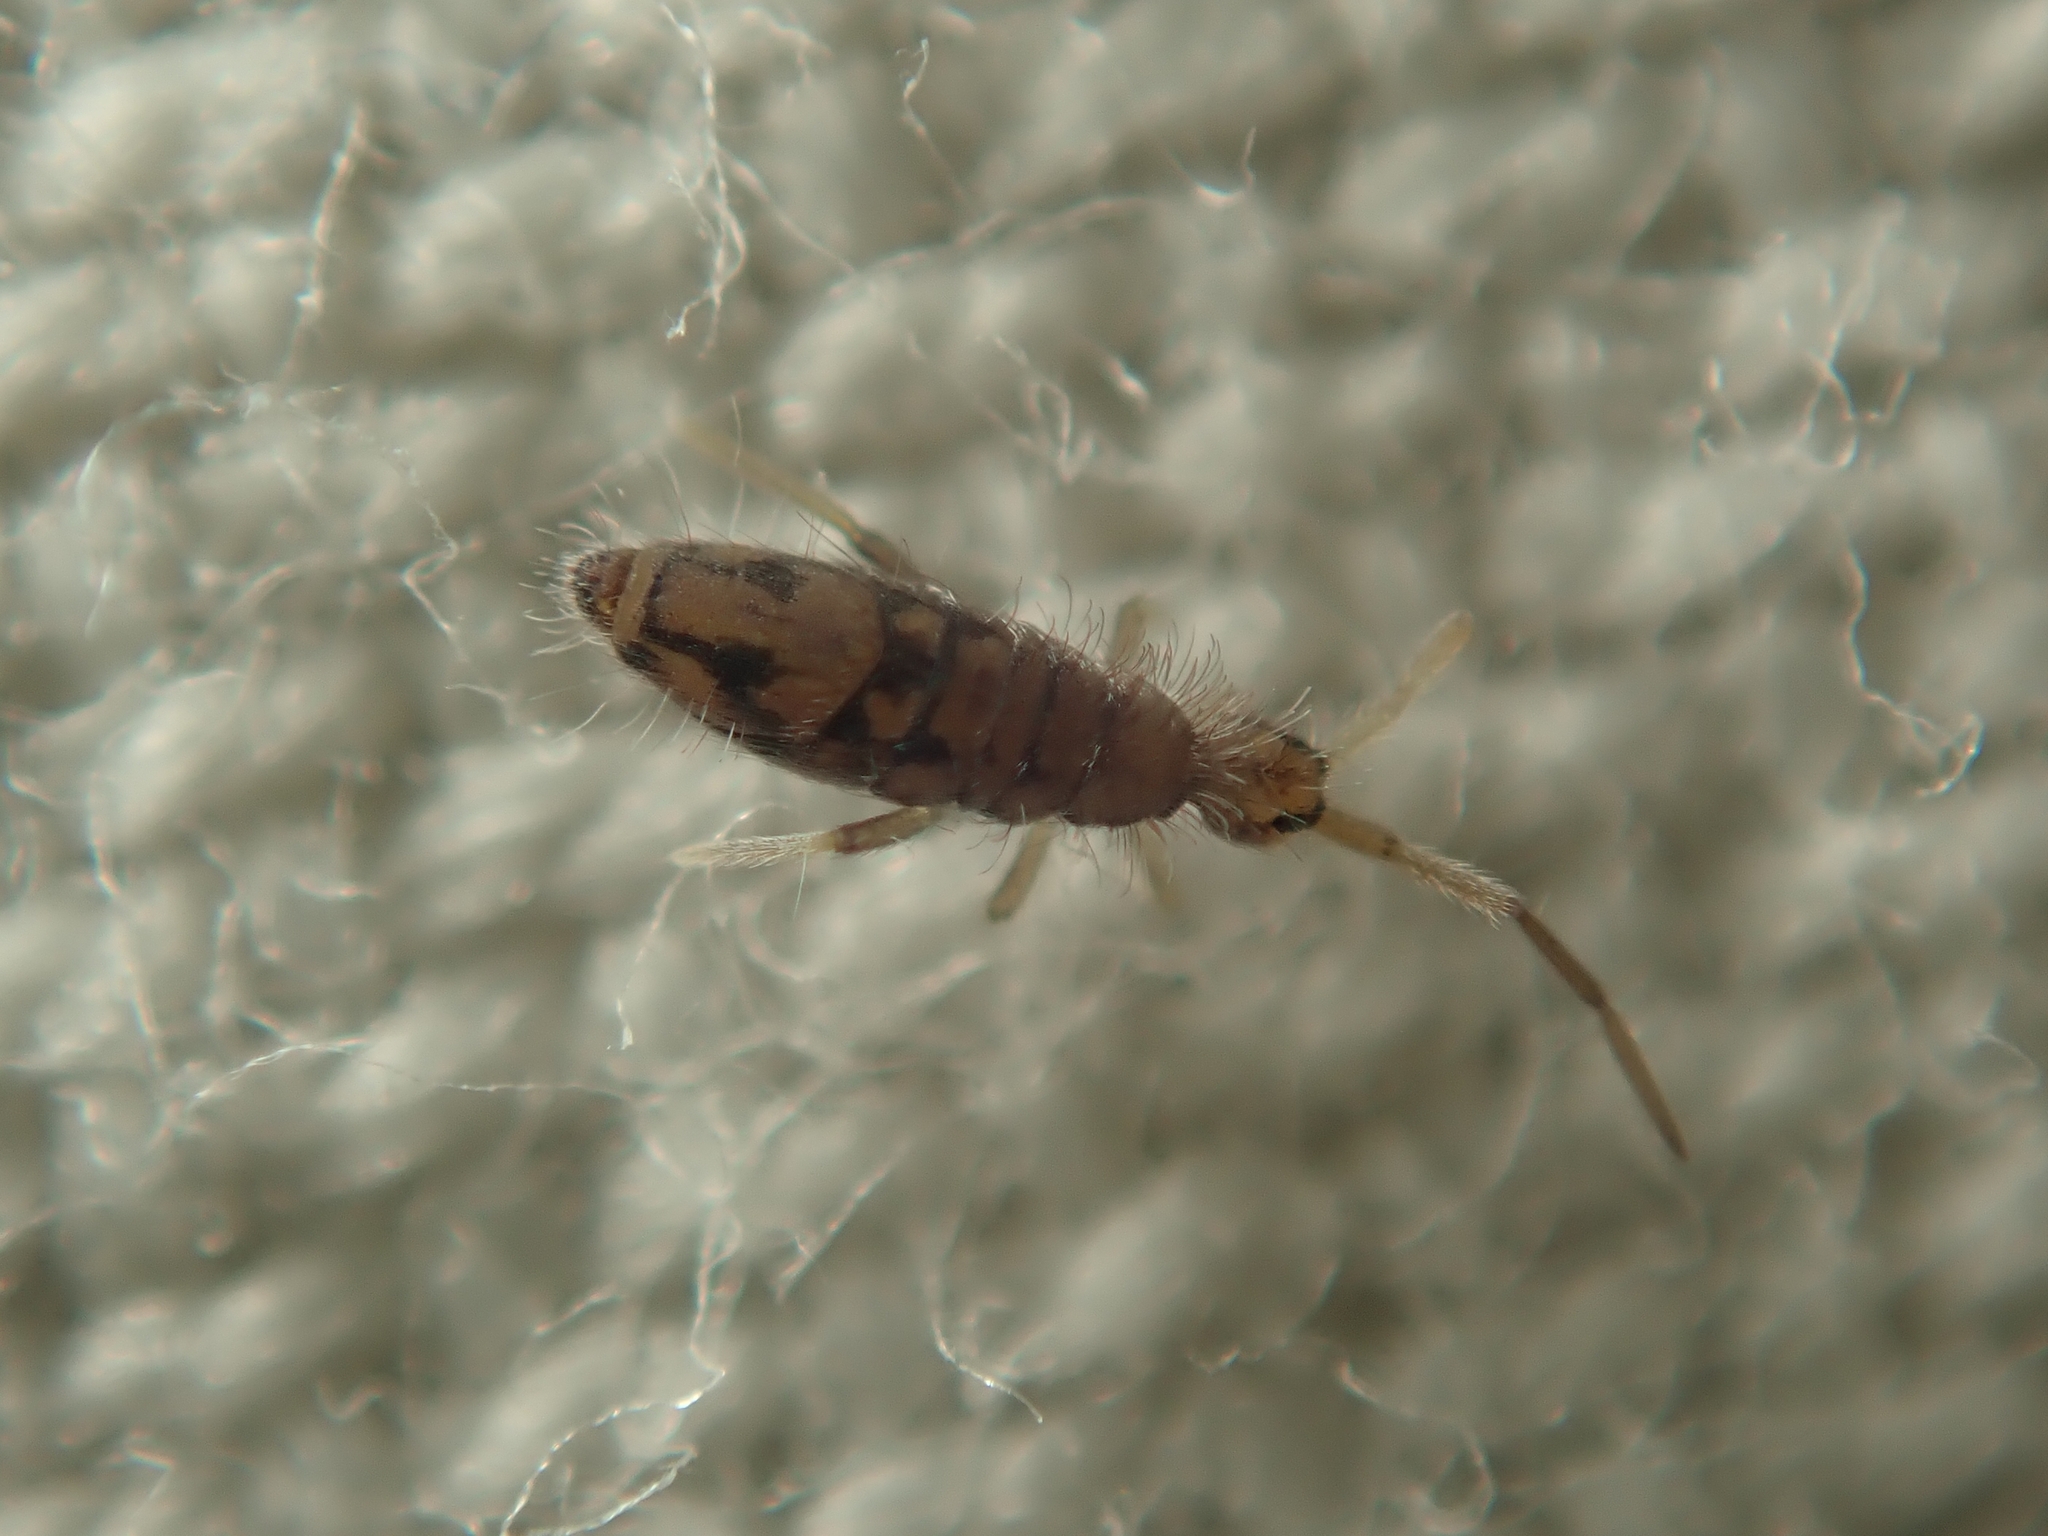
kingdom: Animalia
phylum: Arthropoda
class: Collembola
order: Entomobryomorpha
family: Entomobryidae
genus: Entomobrya
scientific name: Entomobrya nivalis
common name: Cosmopolitan springtail
